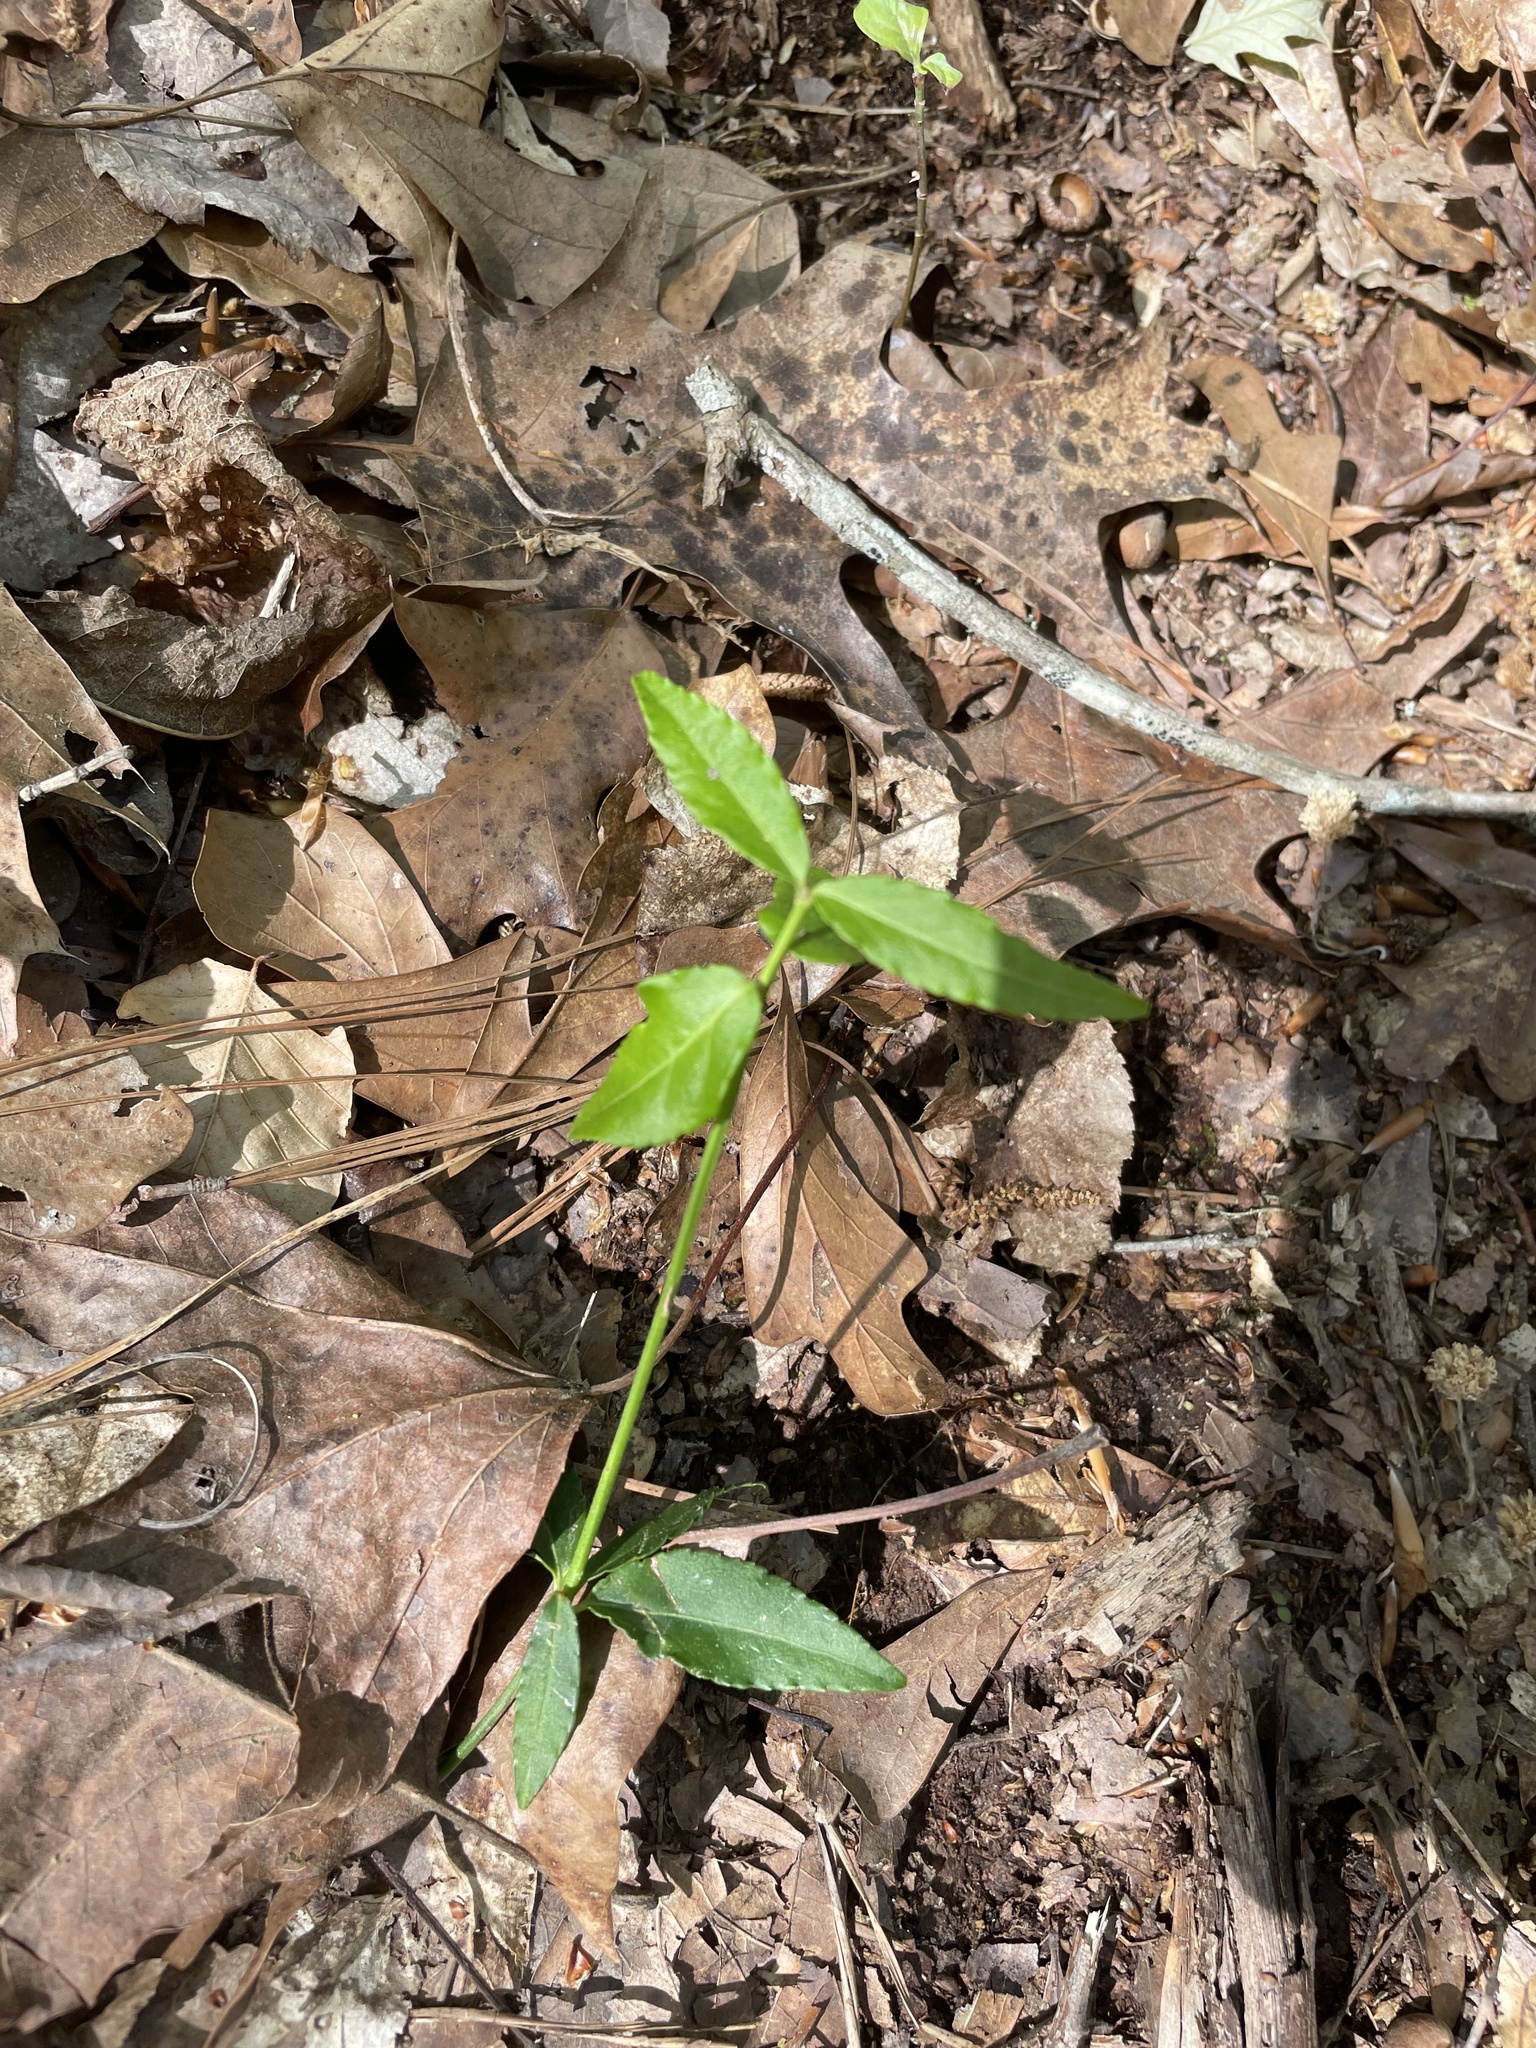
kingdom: Plantae
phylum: Tracheophyta
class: Magnoliopsida
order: Celastrales
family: Celastraceae
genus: Euonymus
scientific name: Euonymus americanus
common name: Bursting-heart
